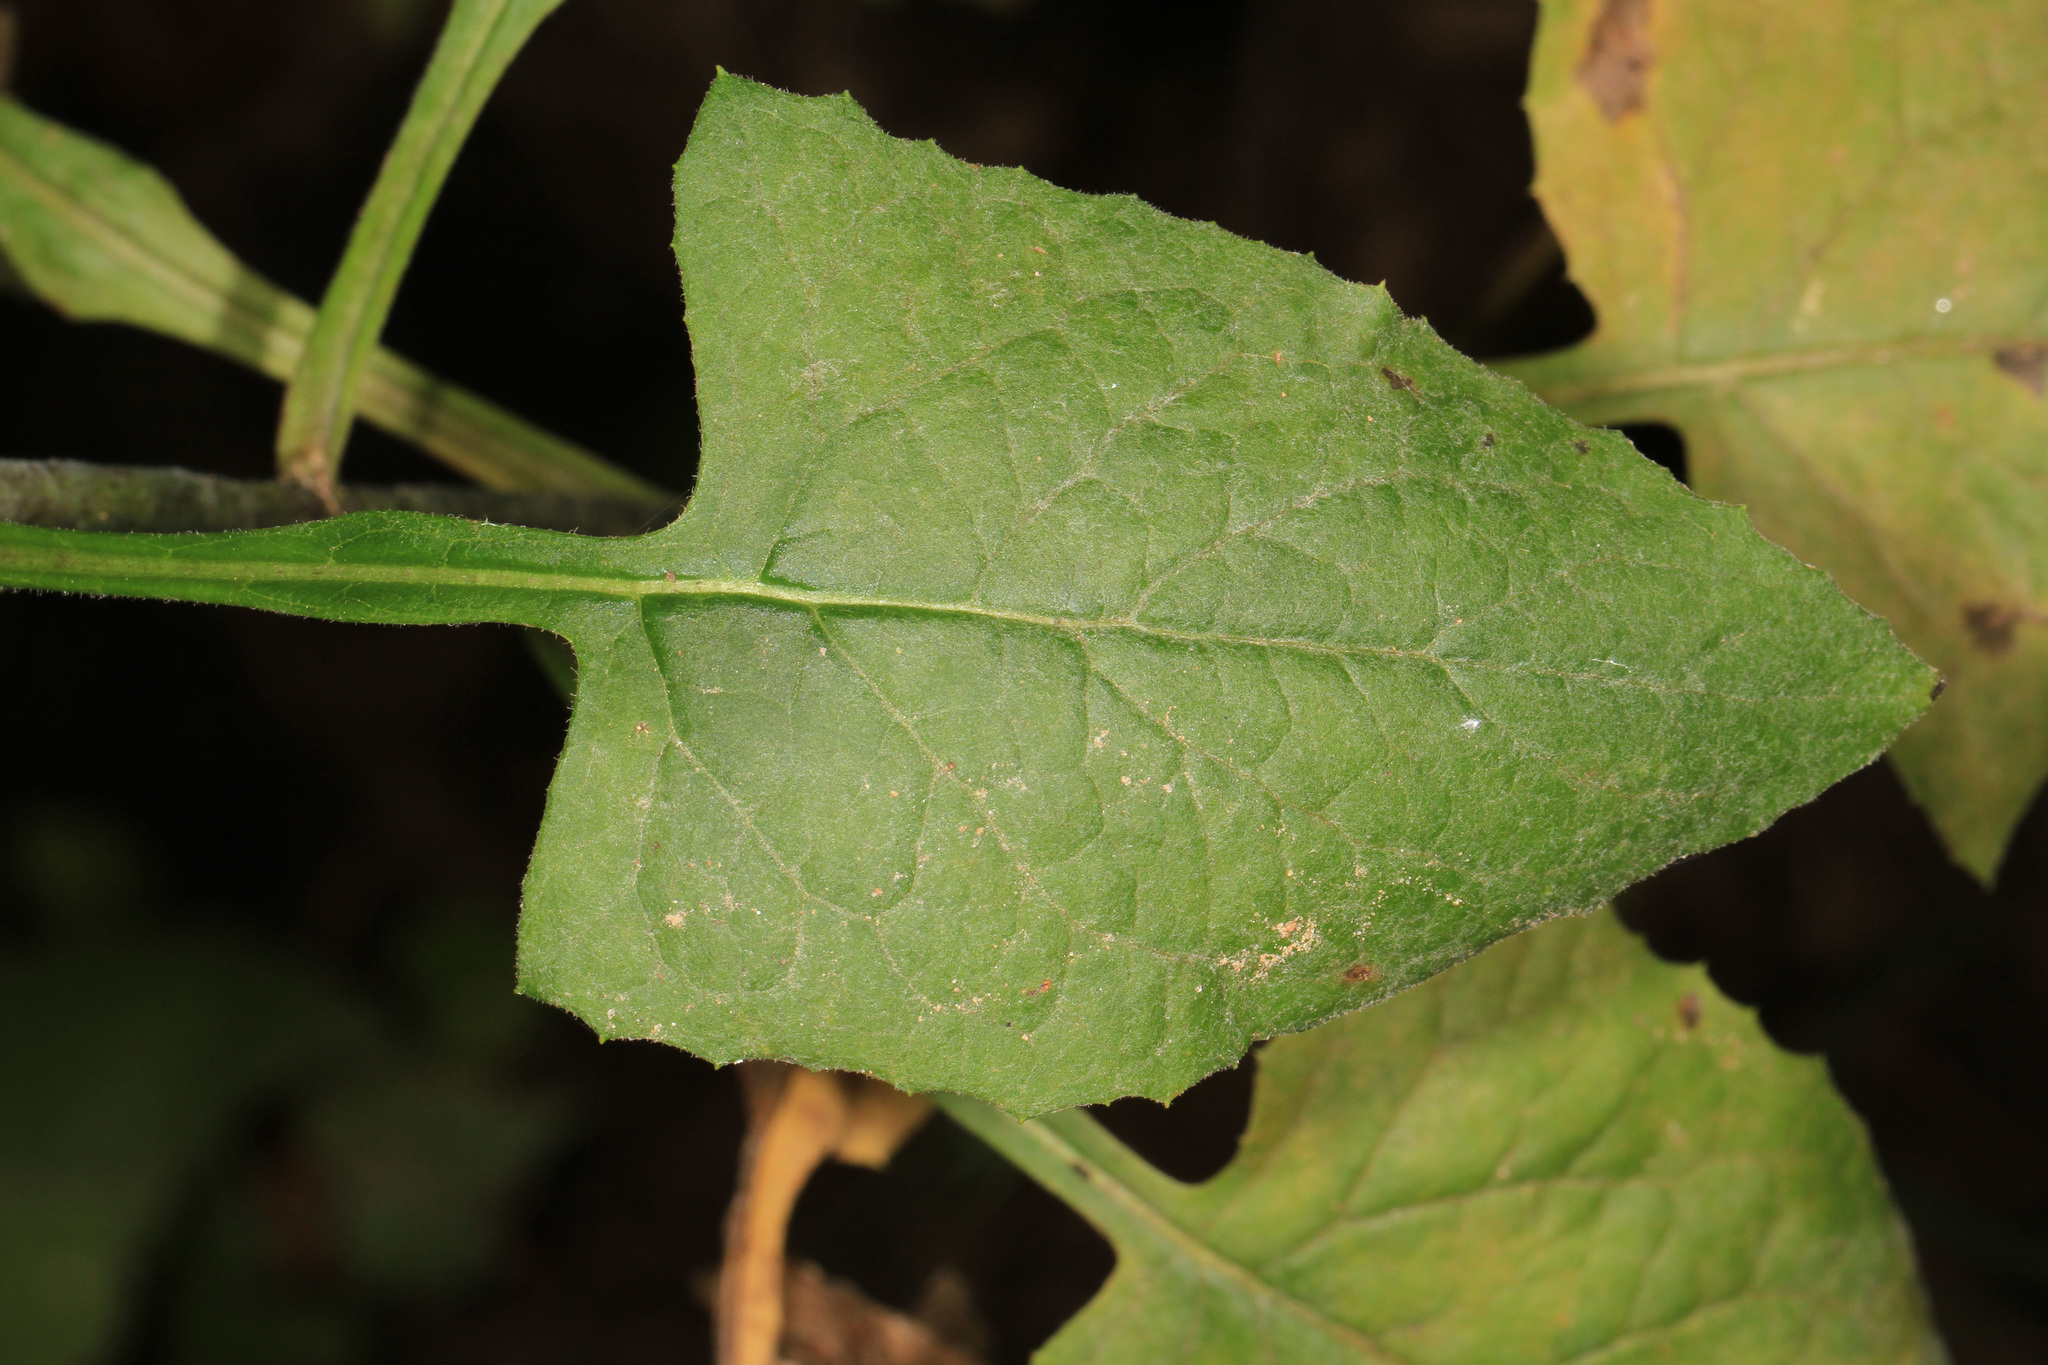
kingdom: Plantae
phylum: Tracheophyta
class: Magnoliopsida
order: Asterales
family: Asteraceae
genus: Lactuca
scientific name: Lactuca floridana
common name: Woodland lettuce
